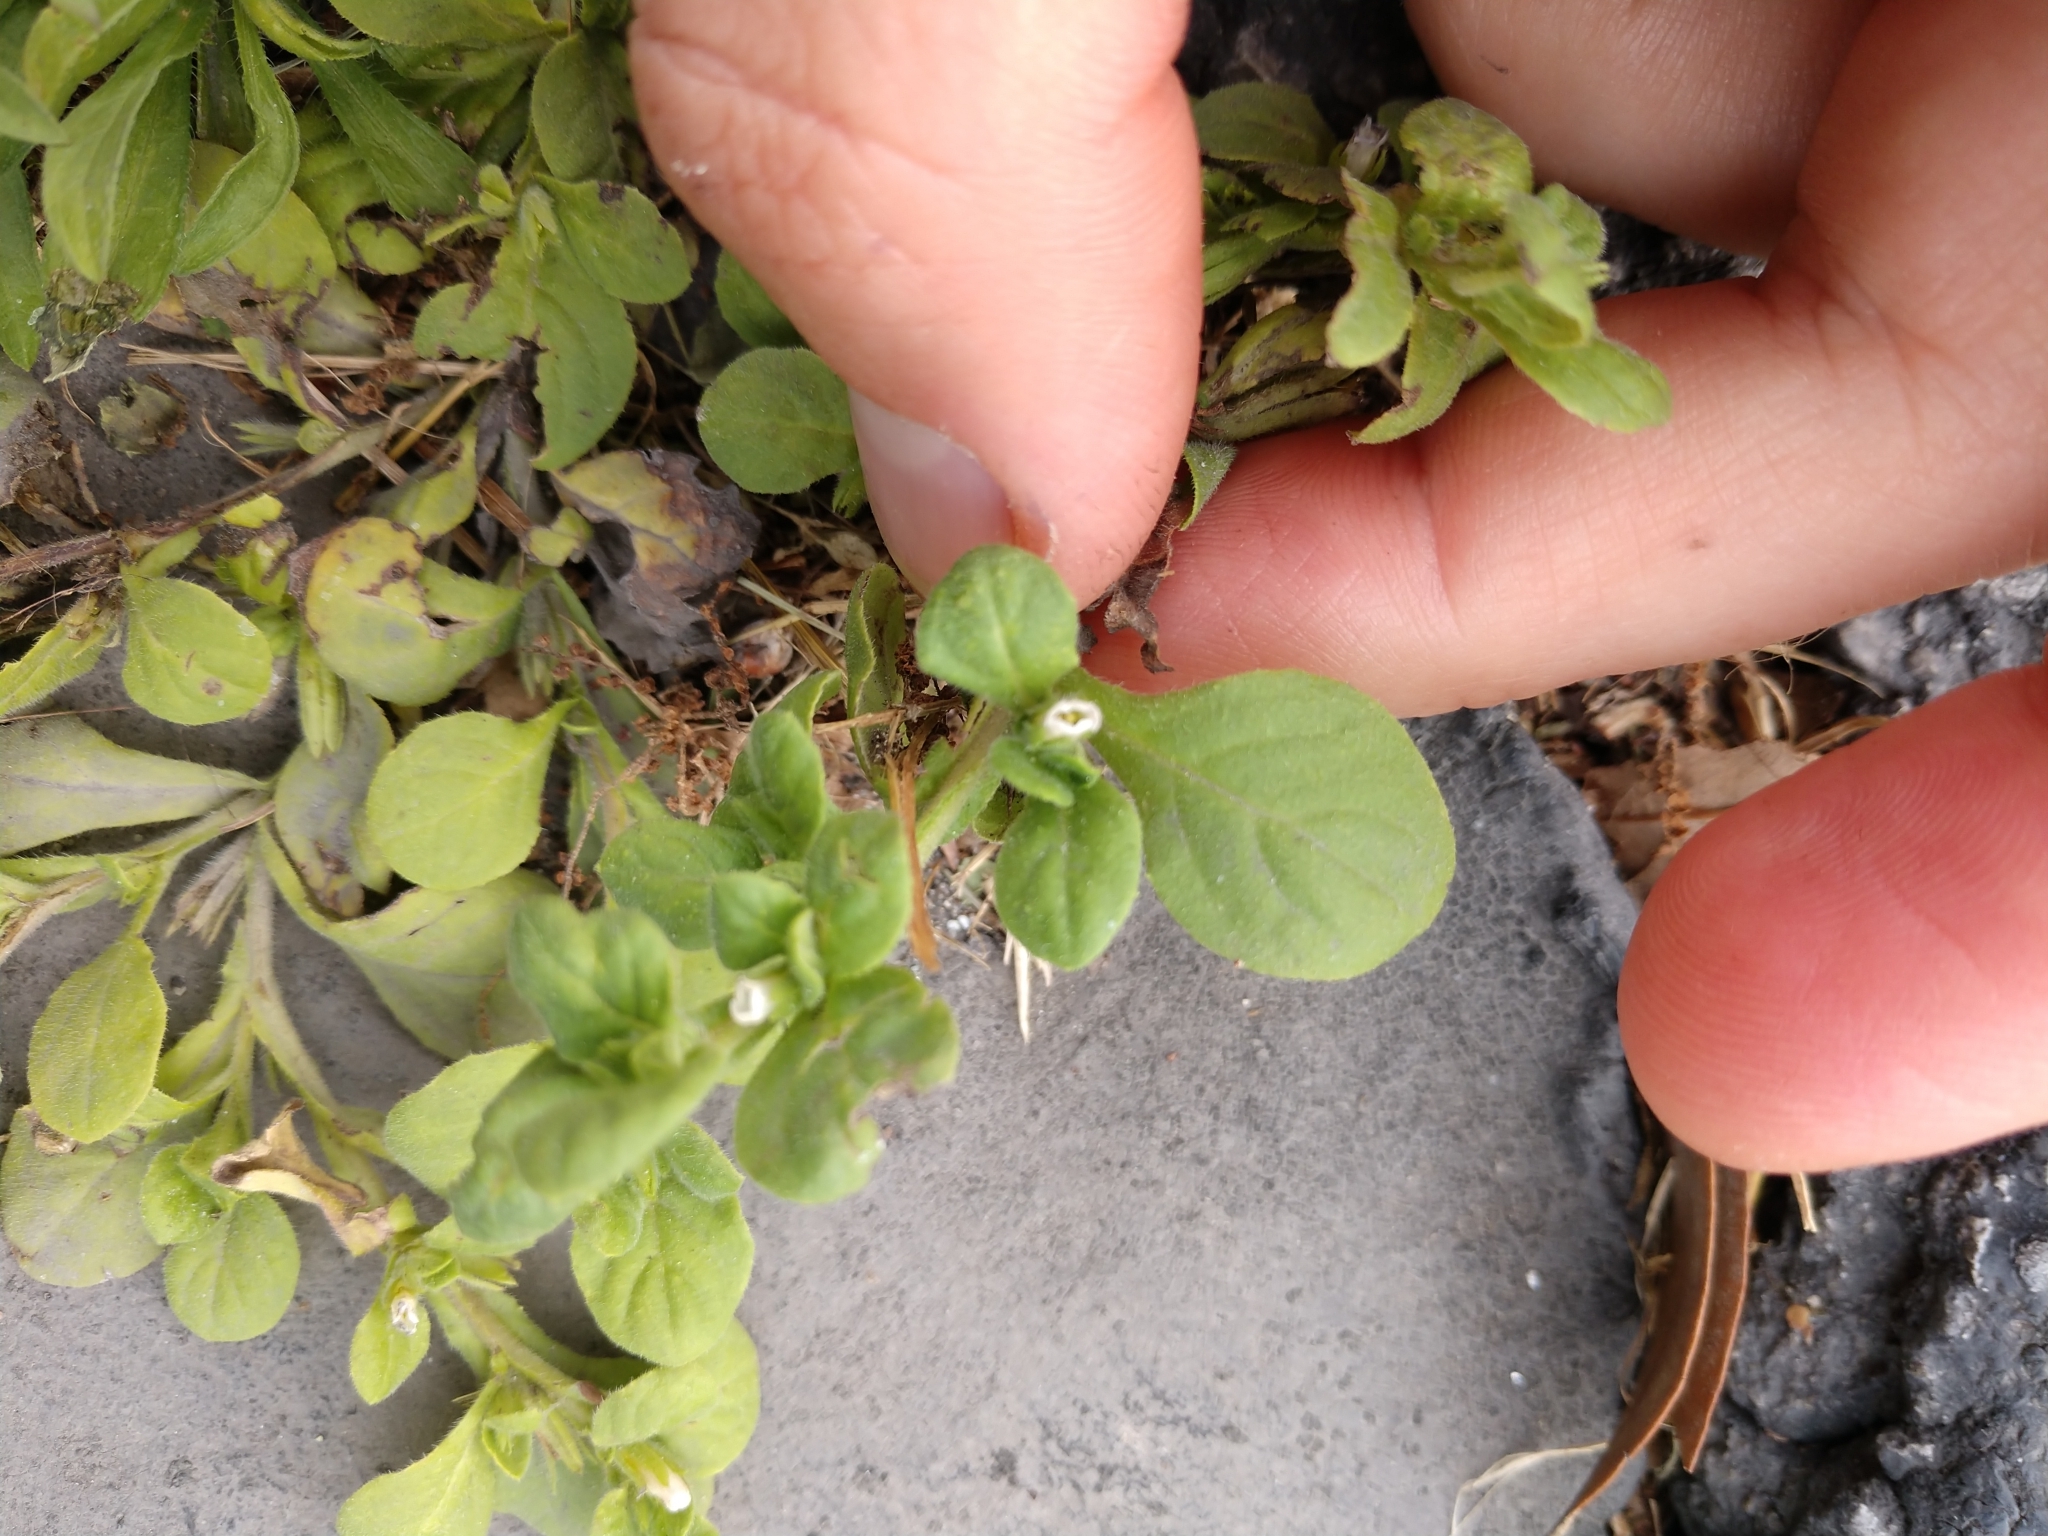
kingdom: Plantae
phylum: Tracheophyta
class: Magnoliopsida
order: Boraginales
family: Namaceae
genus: Nama
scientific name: Nama jamaicensis
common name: Jamaicanweed
